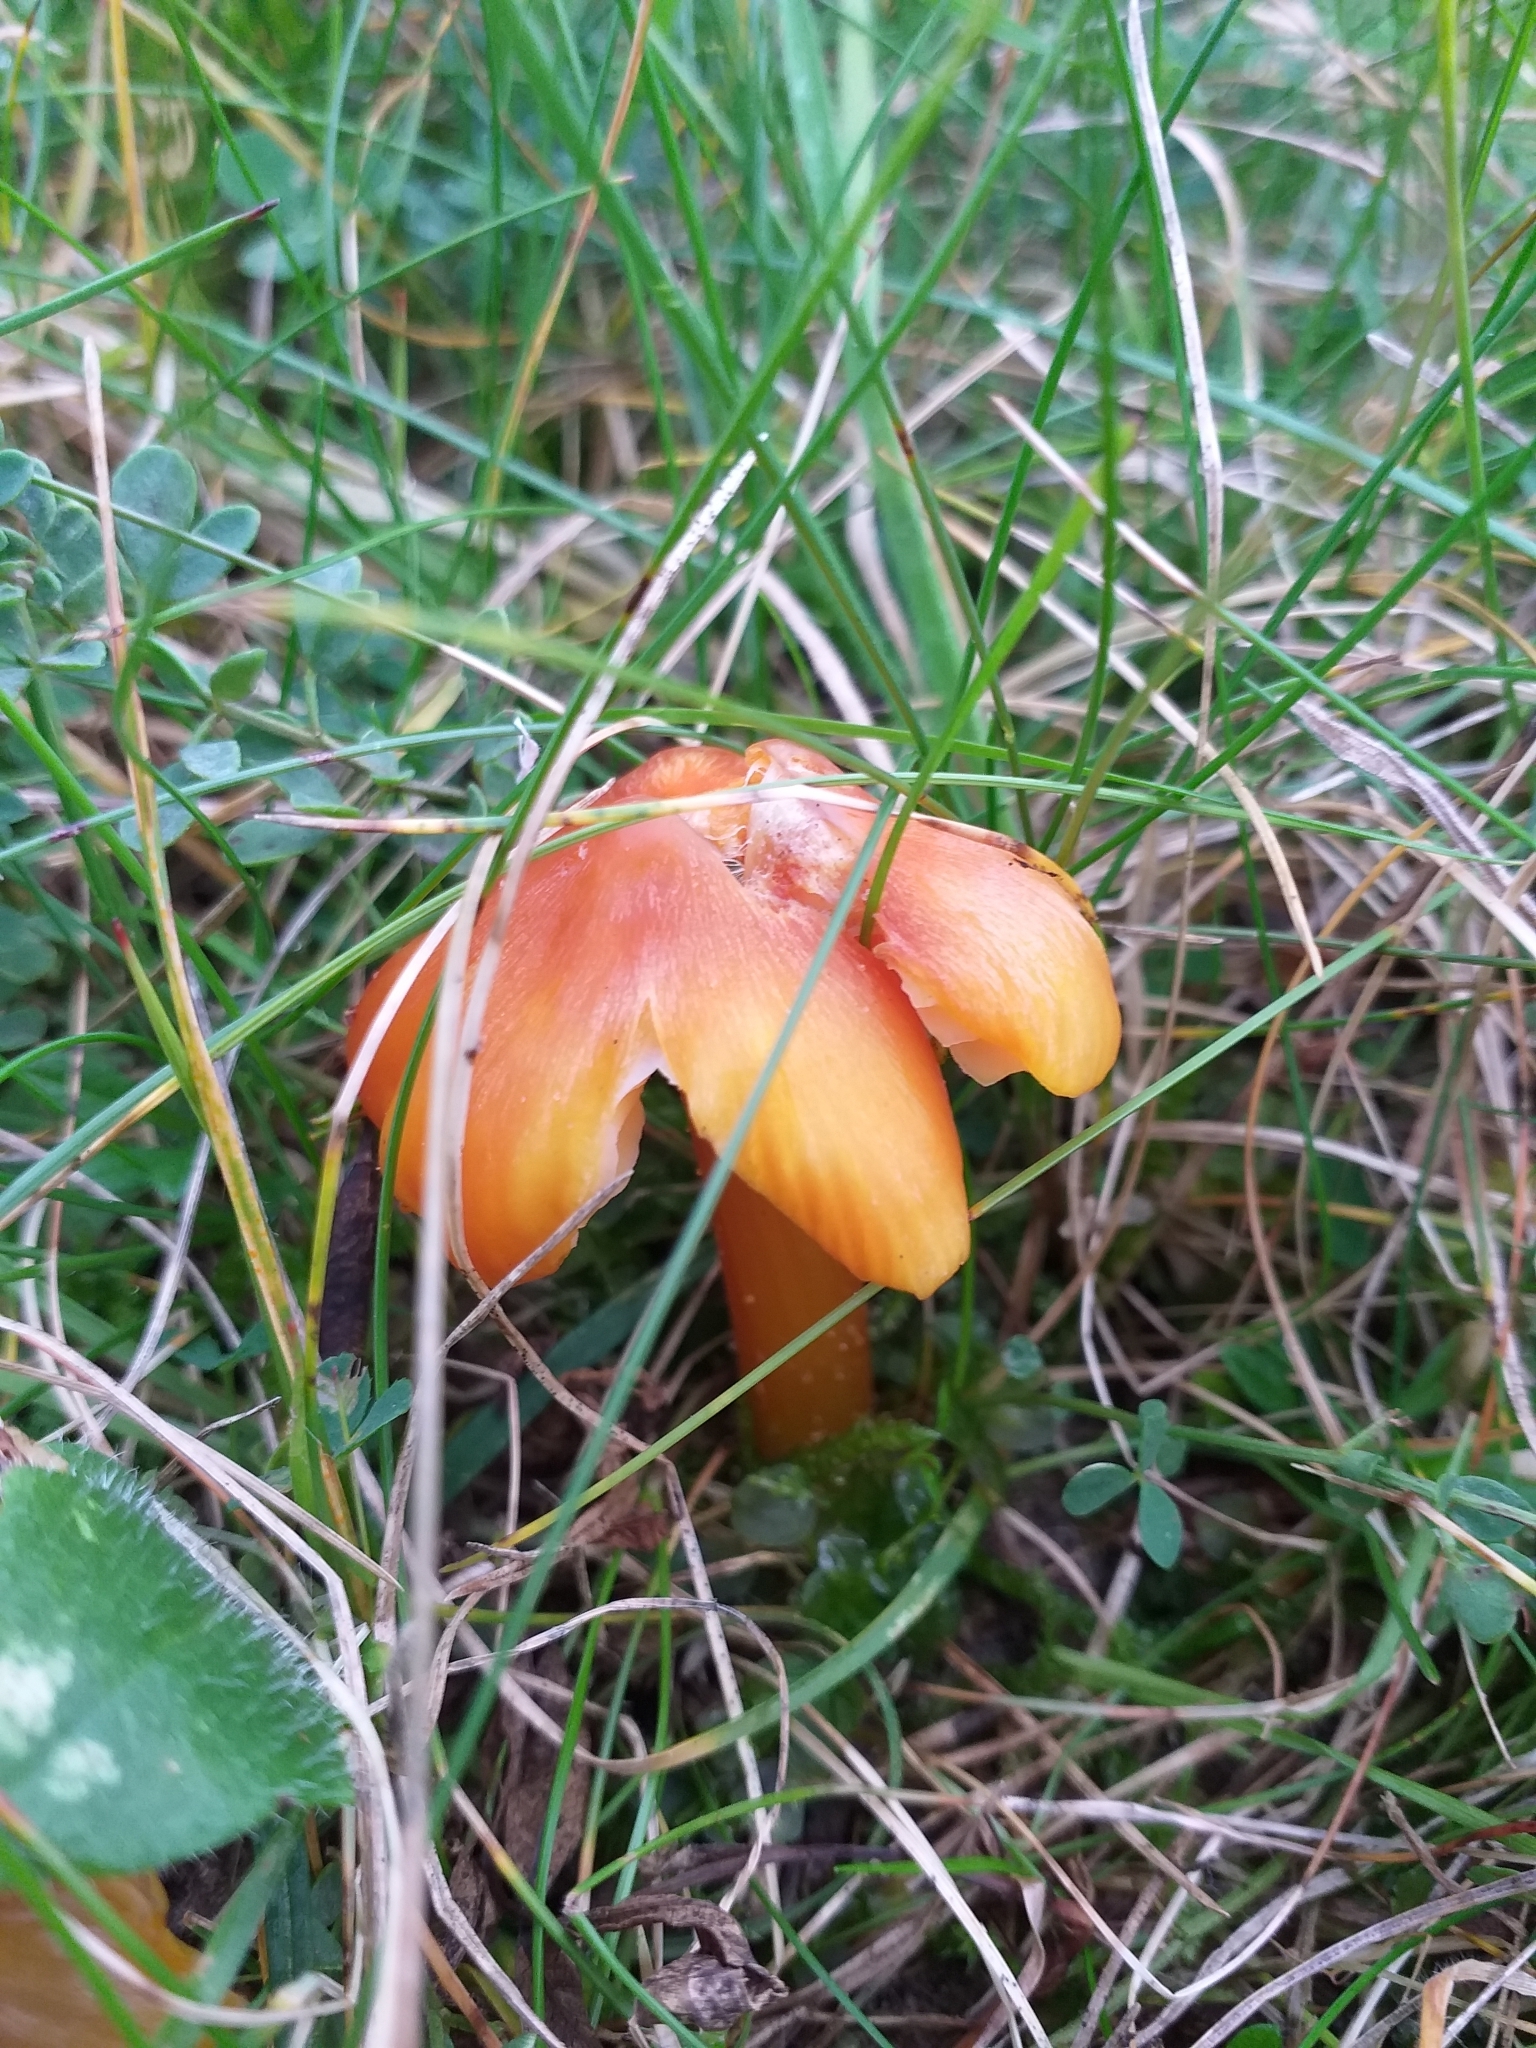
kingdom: Fungi
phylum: Basidiomycota
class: Agaricomycetes
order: Agaricales
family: Hygrophoraceae
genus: Hygrocybe
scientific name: Hygrocybe acutoconica
